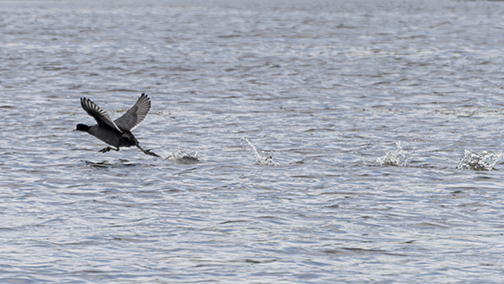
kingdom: Animalia
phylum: Chordata
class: Aves
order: Gruiformes
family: Rallidae
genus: Fulica
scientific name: Fulica americana
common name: American coot
